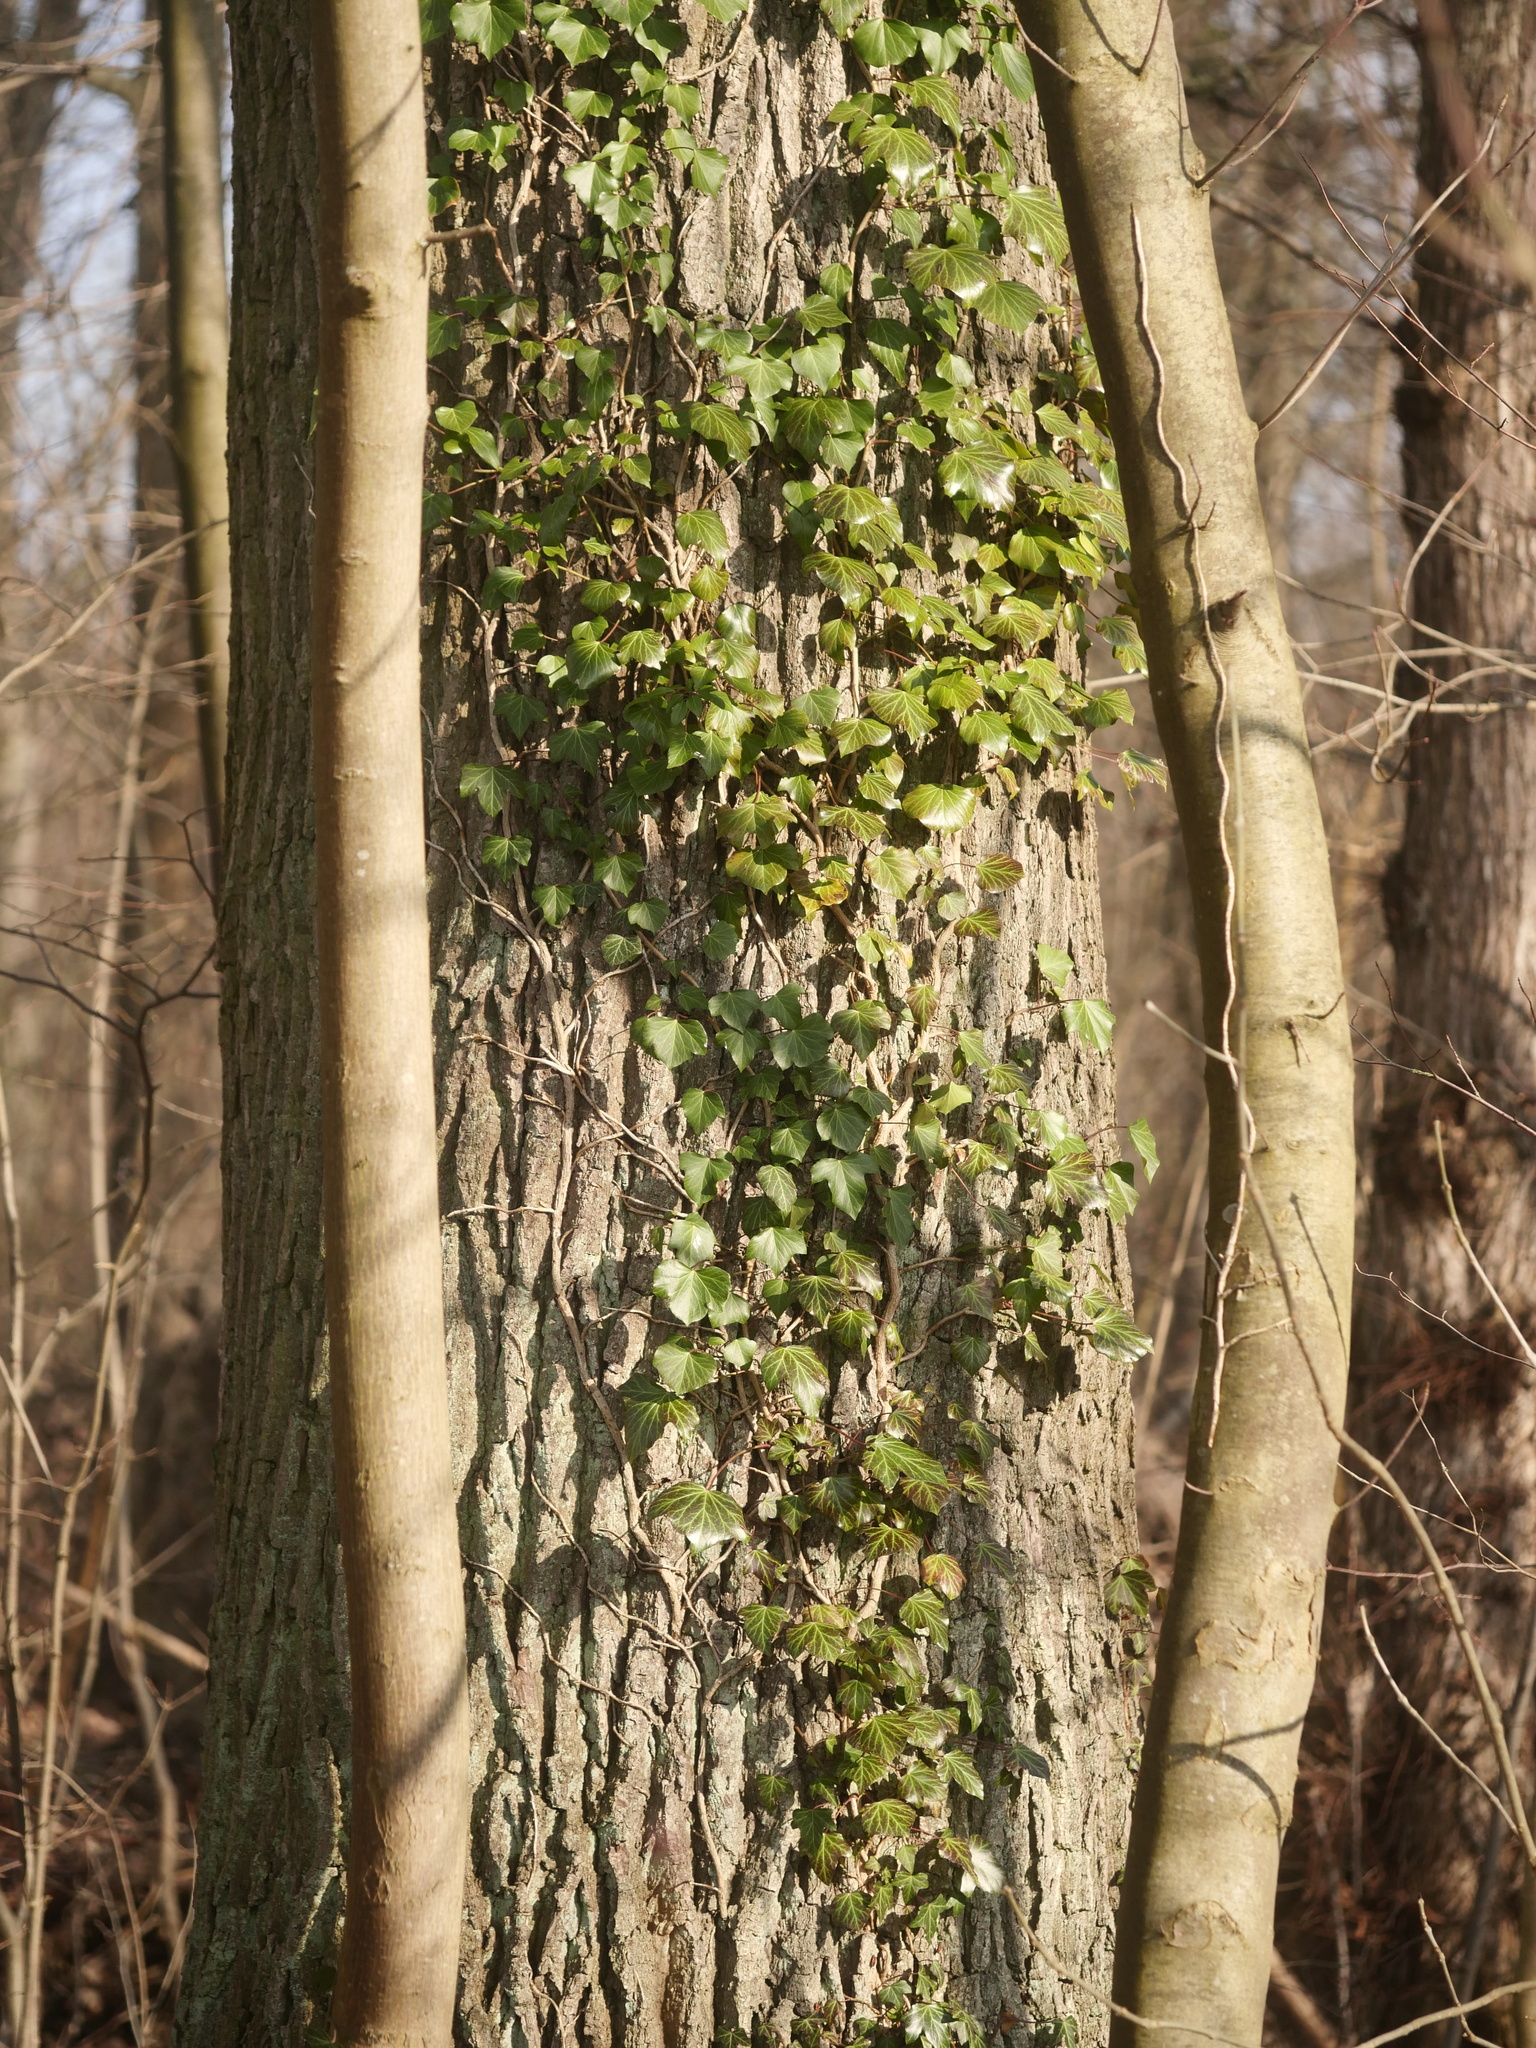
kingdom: Plantae
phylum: Tracheophyta
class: Magnoliopsida
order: Apiales
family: Araliaceae
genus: Hedera
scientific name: Hedera helix
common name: Ivy
